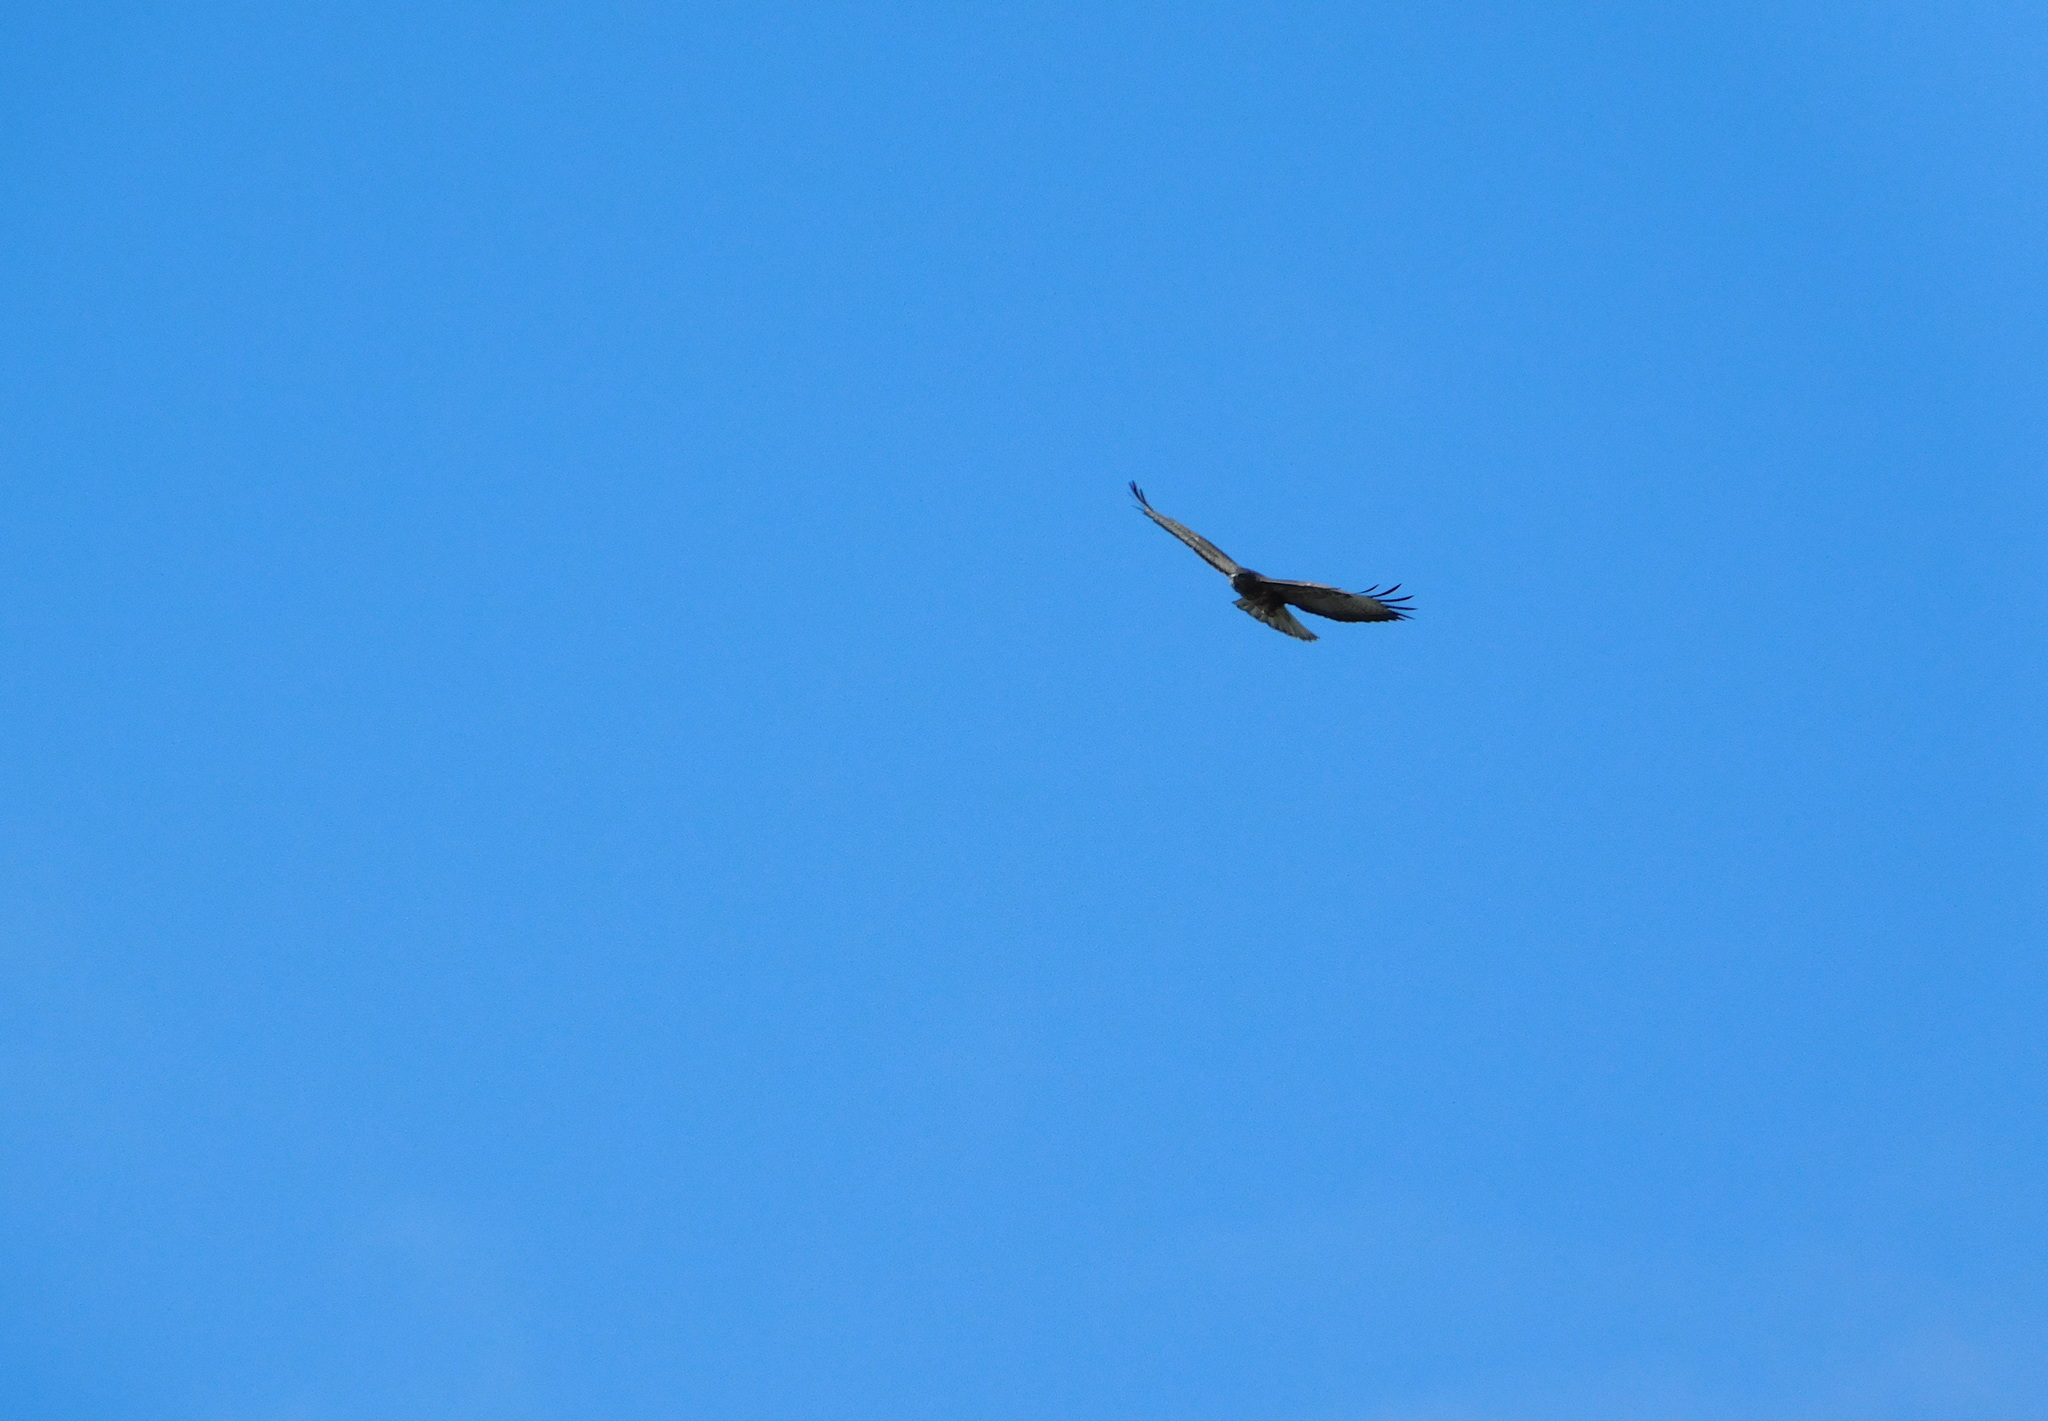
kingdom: Animalia
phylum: Chordata
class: Aves
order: Accipitriformes
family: Accipitridae
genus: Buteo
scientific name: Buteo buteo
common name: Common buzzard
